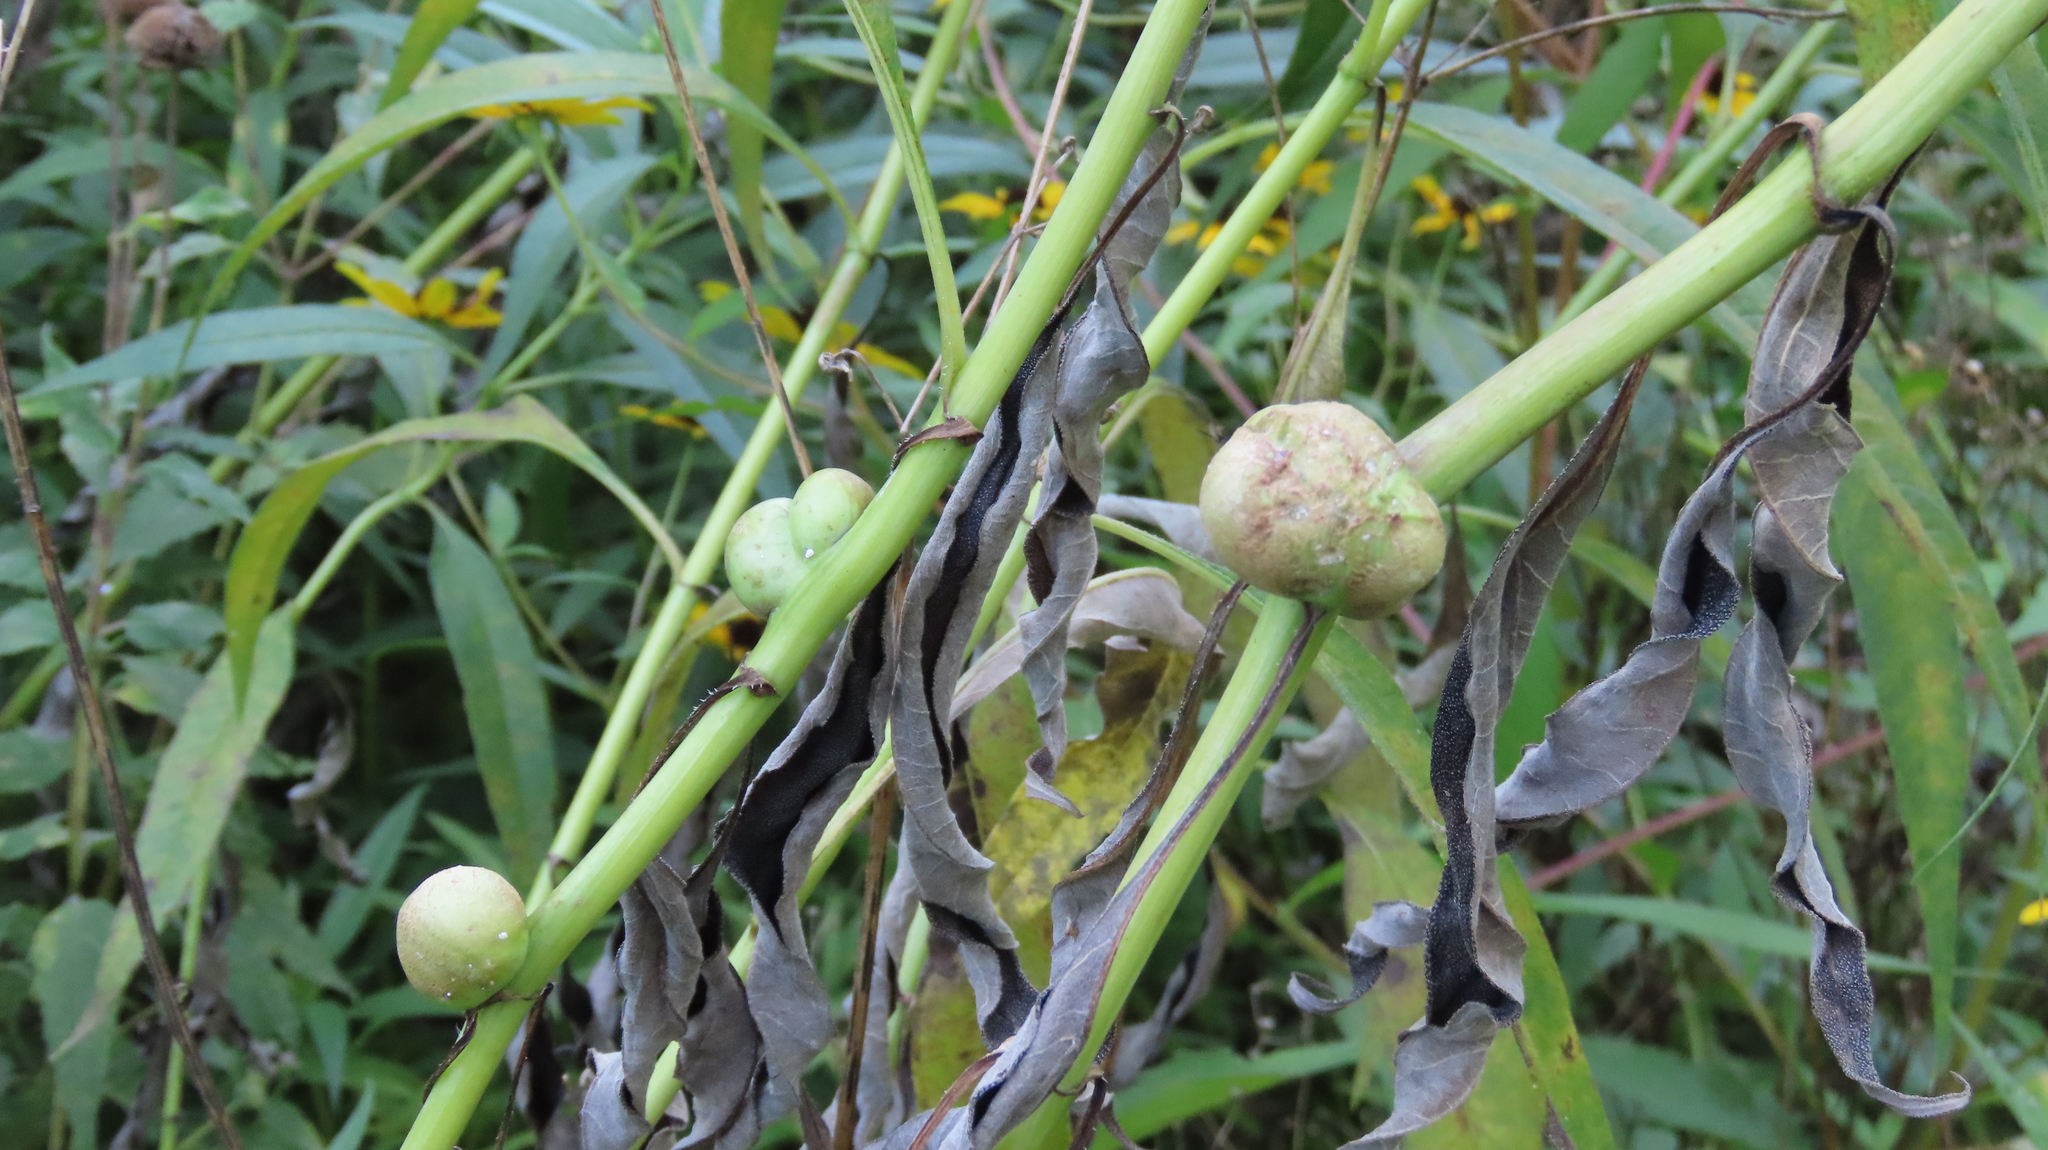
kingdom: Animalia
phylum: Arthropoda
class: Insecta
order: Diptera
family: Cecidomyiidae
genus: Asphondylia
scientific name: Asphondylia helianthiglobulus
